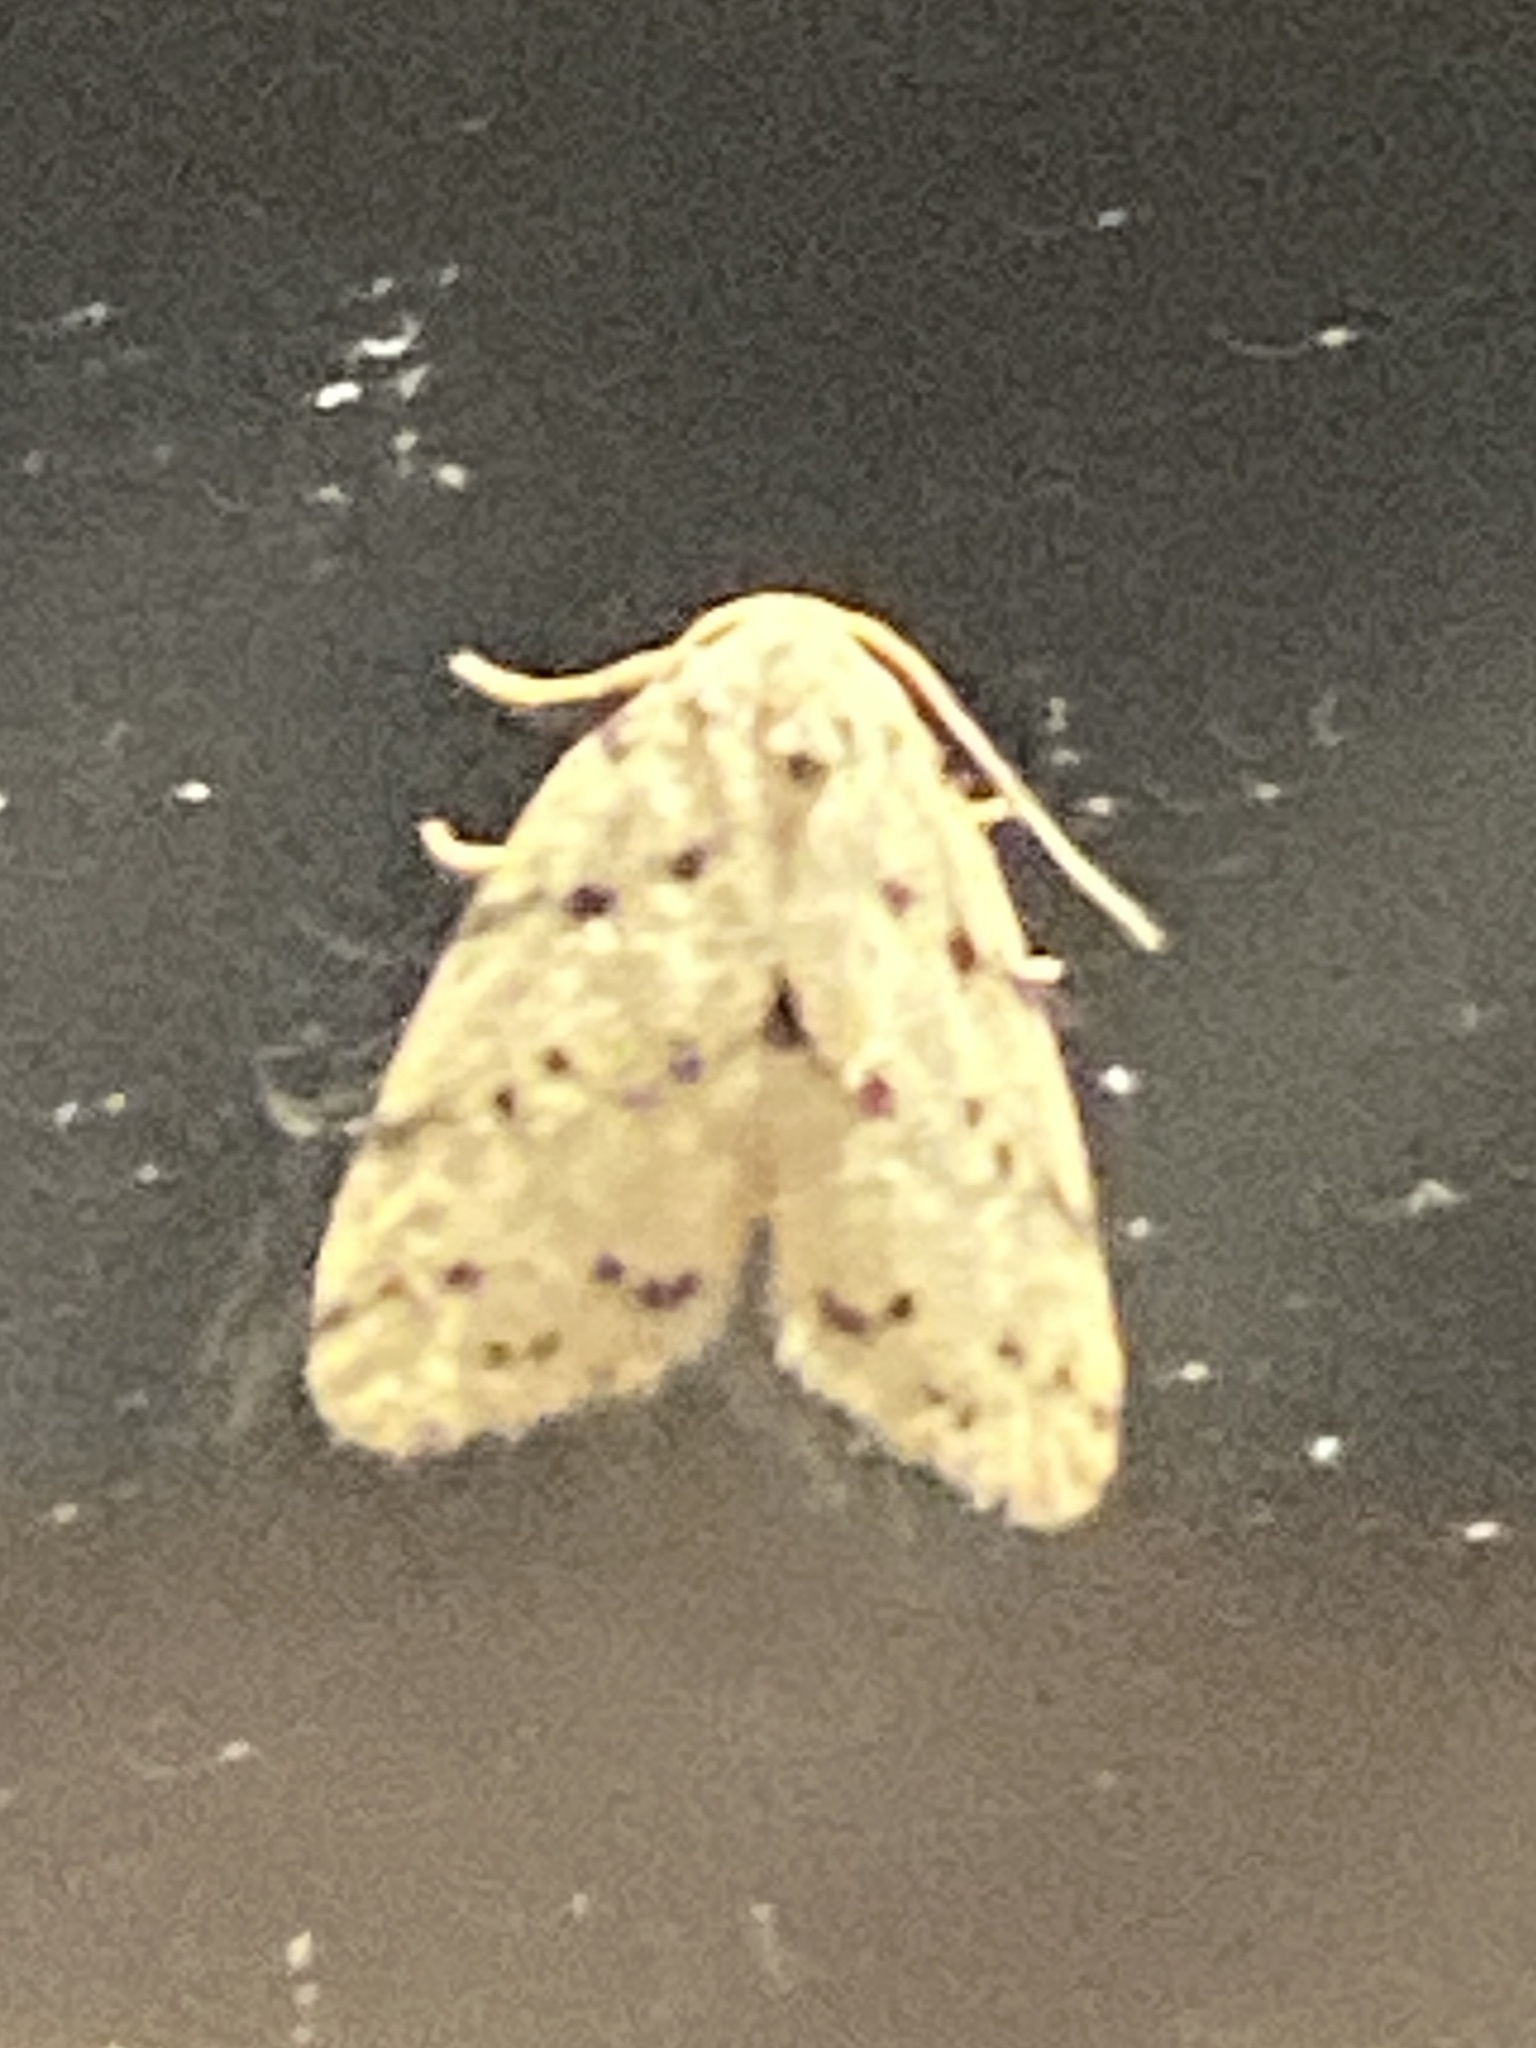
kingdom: Animalia
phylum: Arthropoda
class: Insecta
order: Lepidoptera
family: Erebidae
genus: Eugoa
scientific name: Eugoa africana
